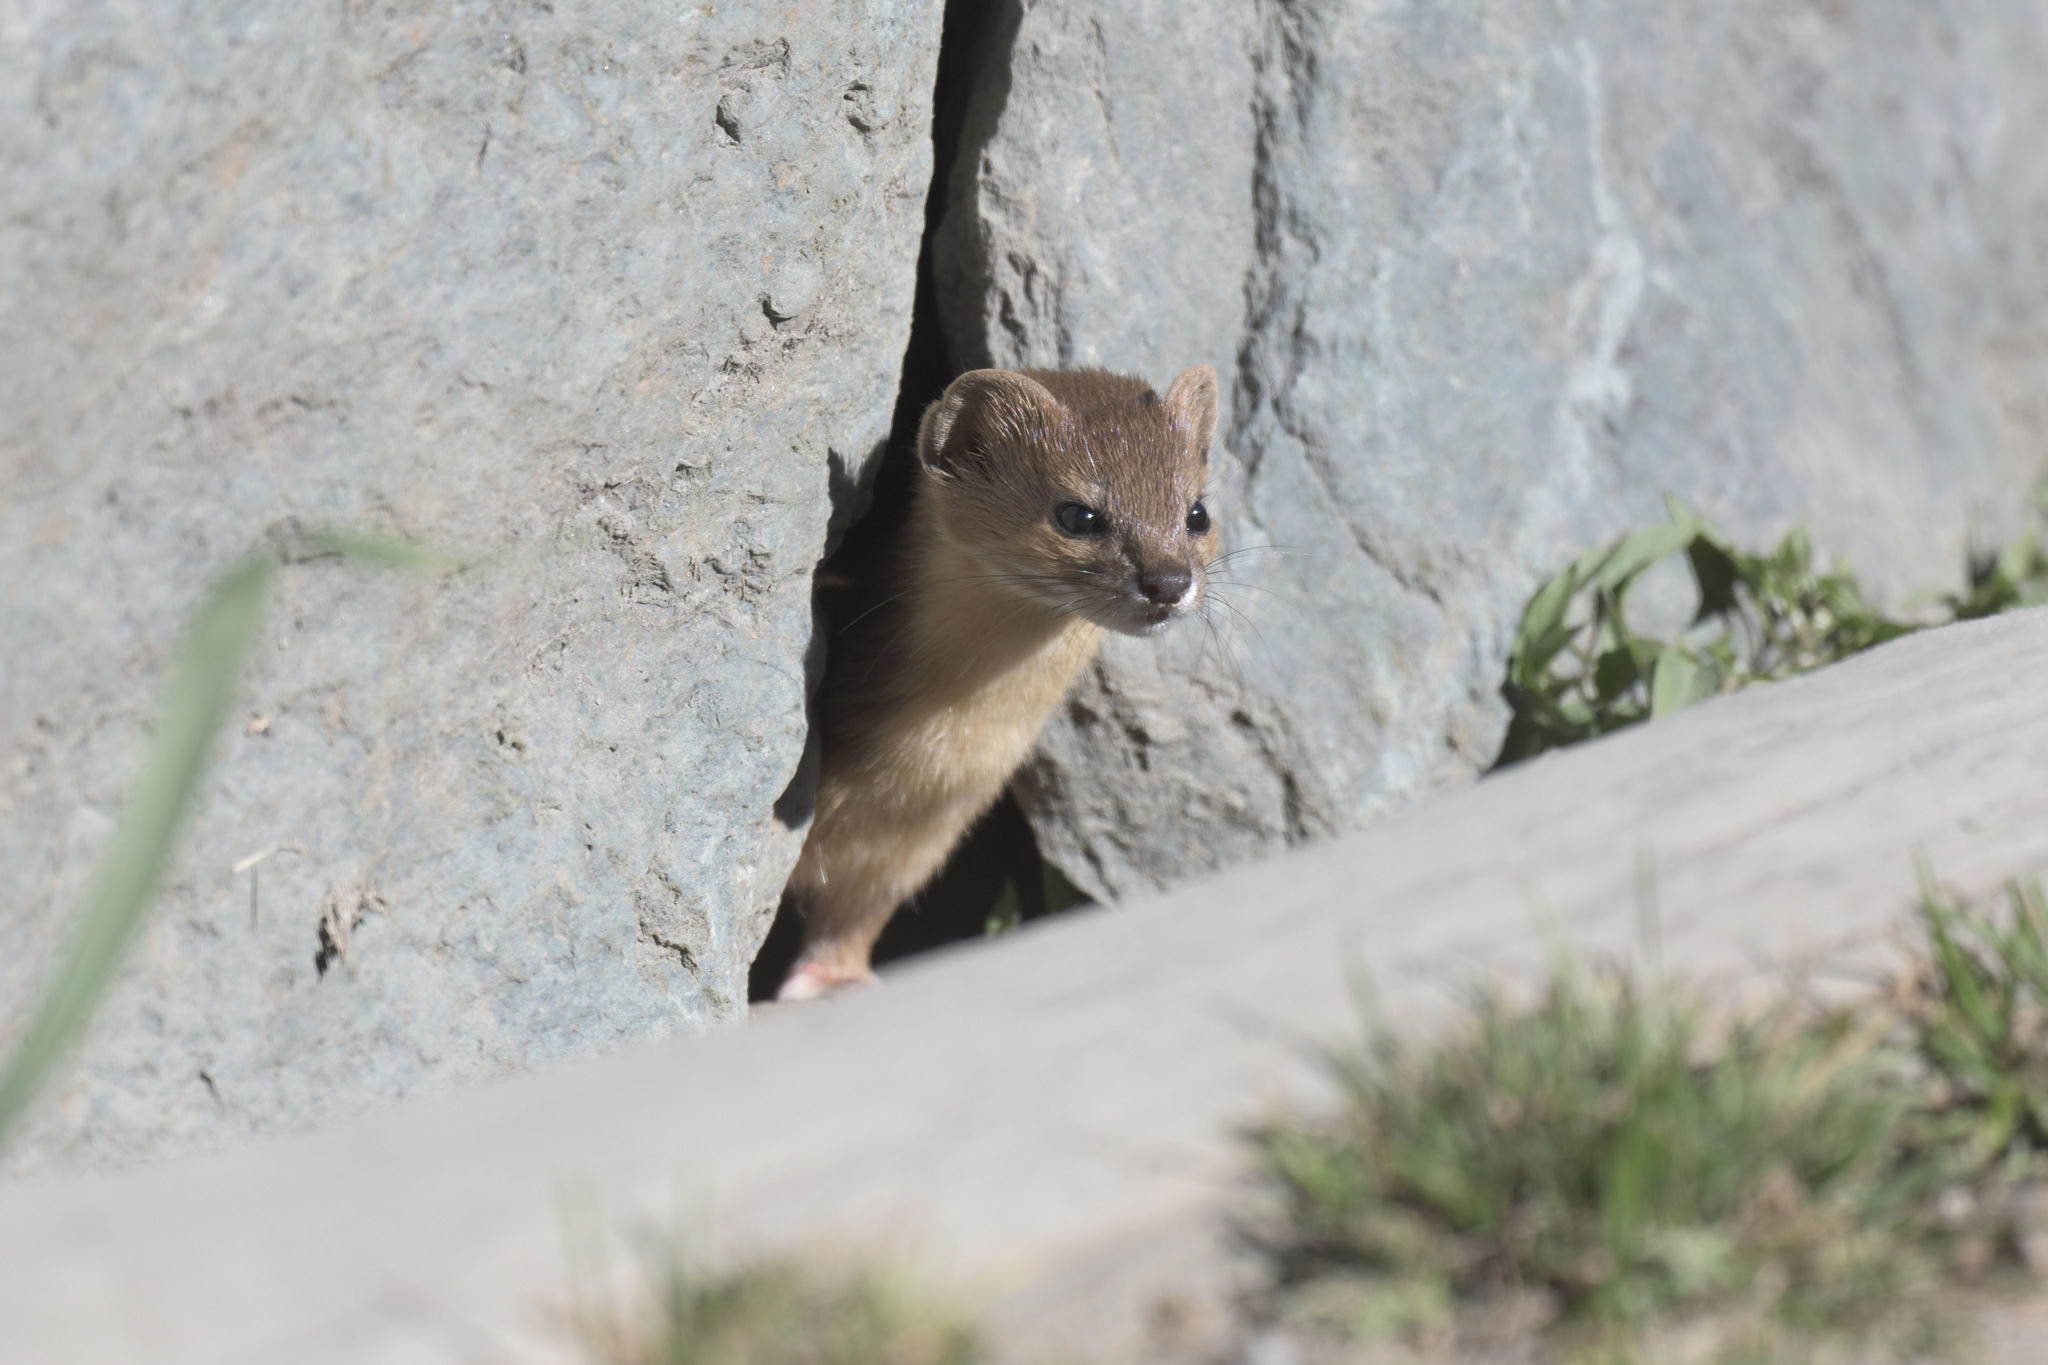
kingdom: Animalia
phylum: Chordata
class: Mammalia
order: Carnivora
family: Mustelidae
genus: Mustela
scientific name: Mustela altaica
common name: Mountain weasel
